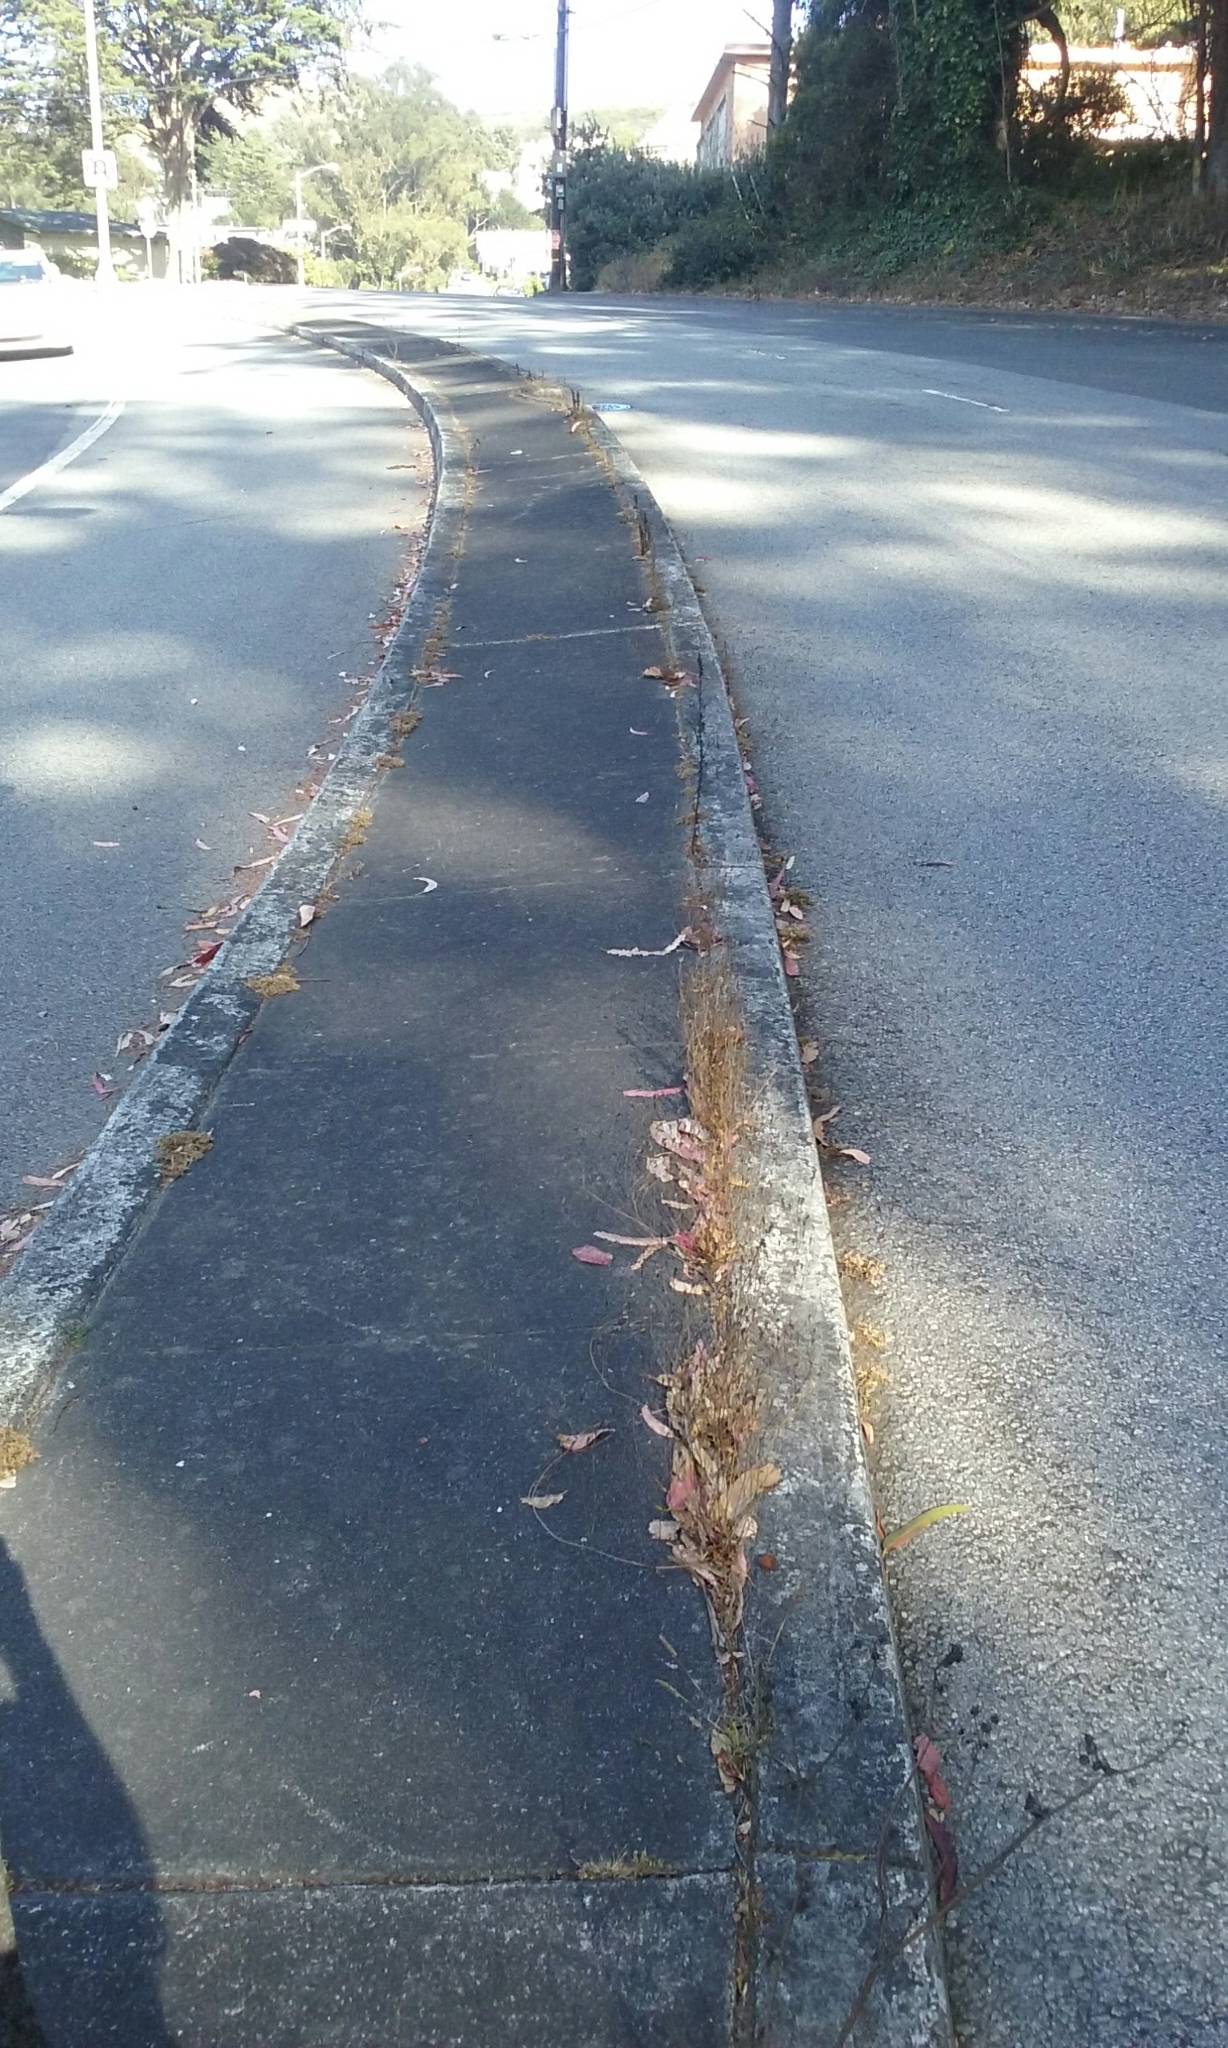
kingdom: Plantae
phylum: Tracheophyta
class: Magnoliopsida
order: Asterales
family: Campanulaceae
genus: Wahlenbergia
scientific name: Wahlenbergia marginata
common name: Southern rockbell
